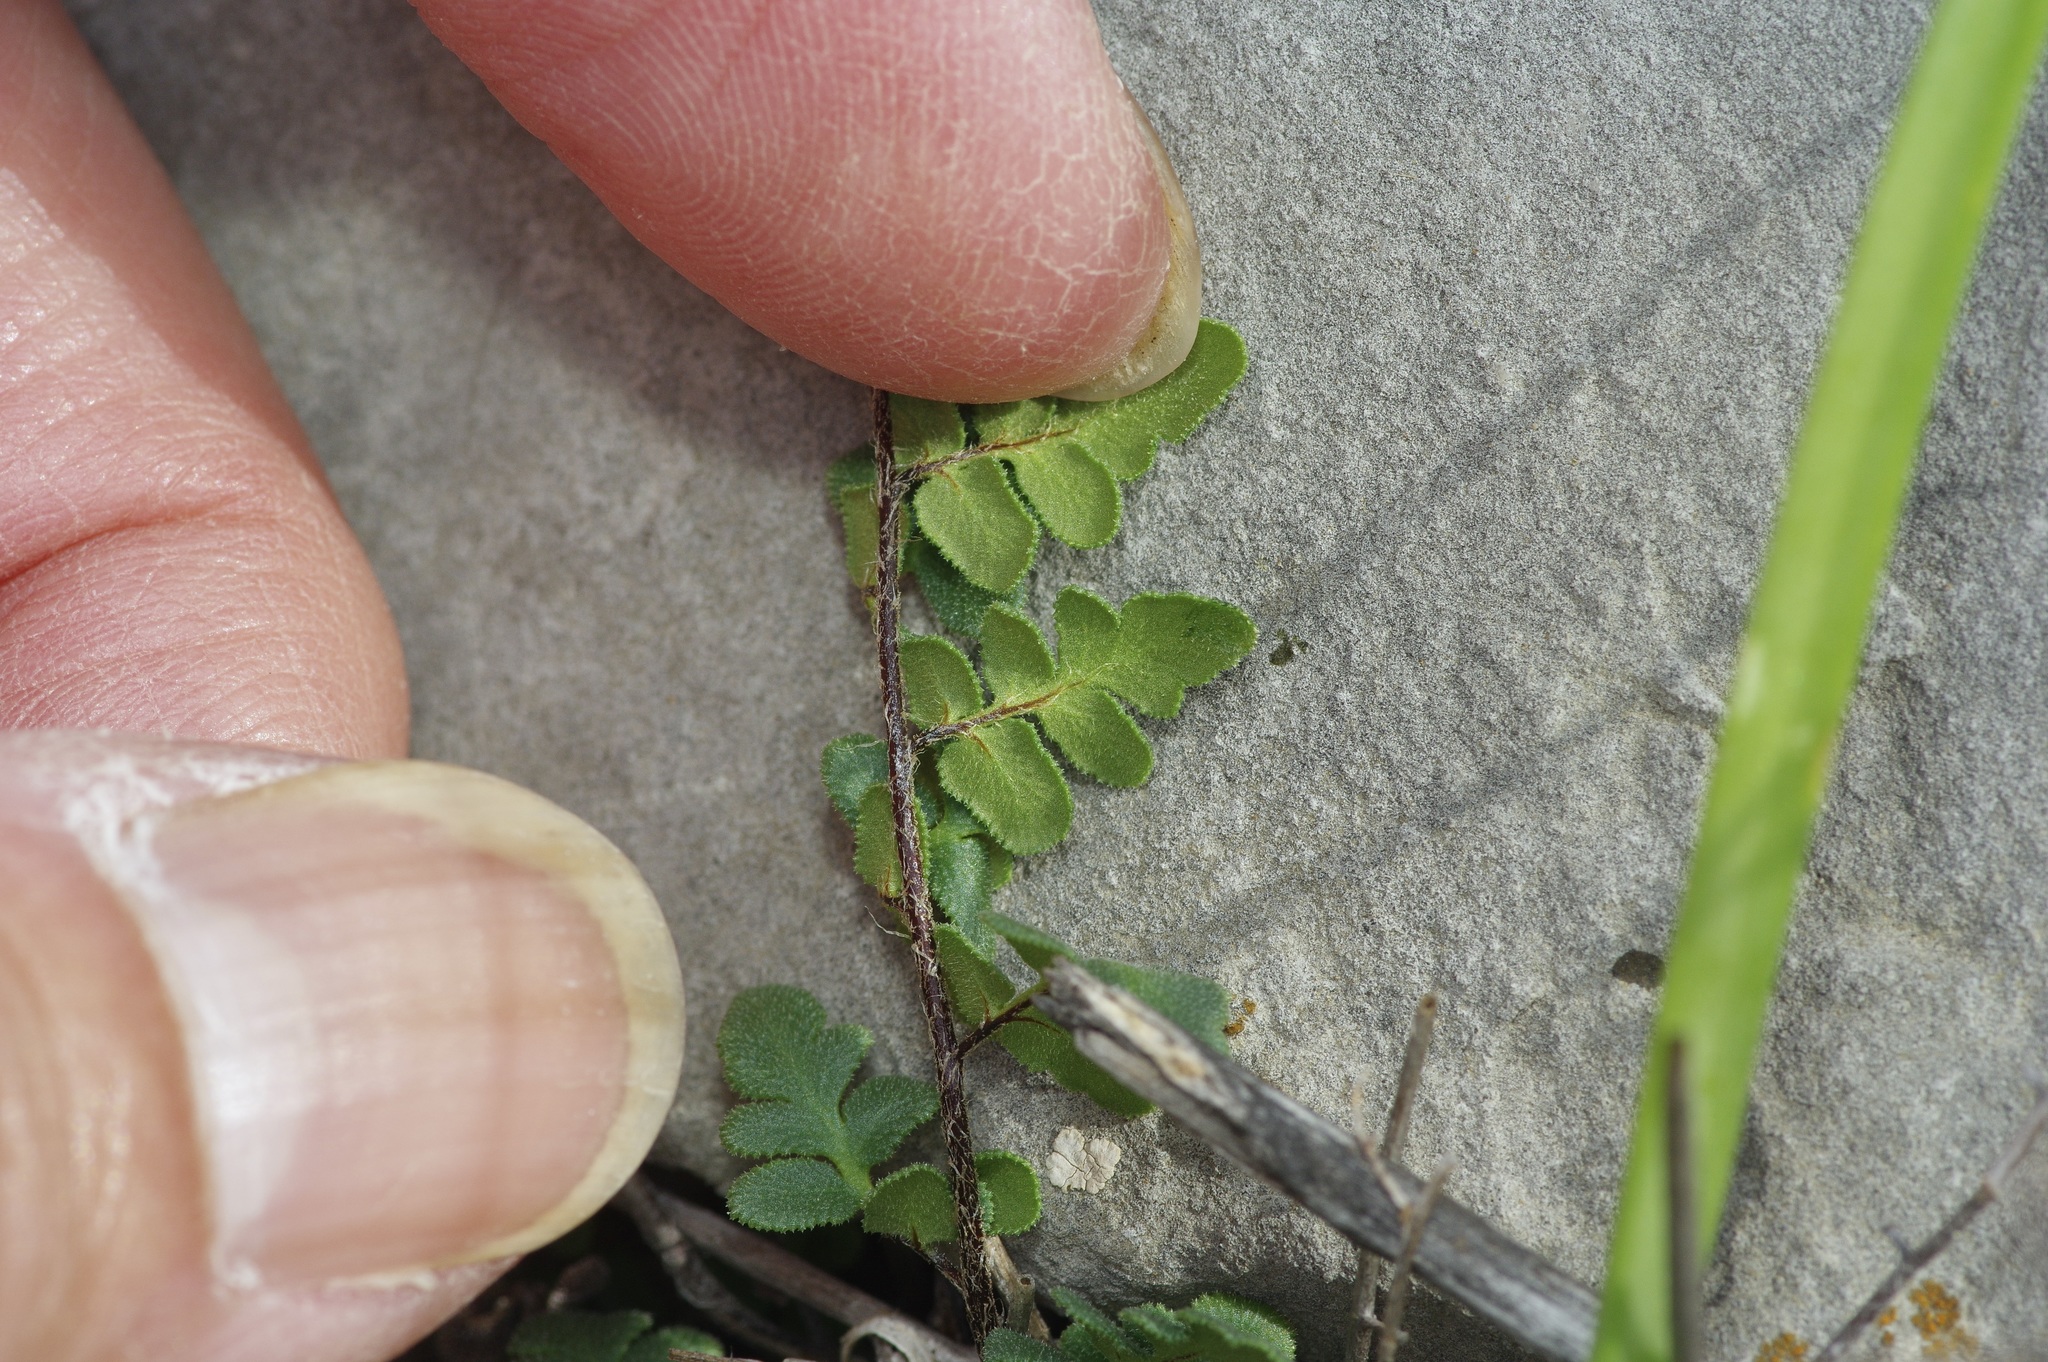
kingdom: Plantae
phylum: Tracheophyta
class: Polypodiopsida
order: Polypodiales
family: Pteridaceae
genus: Myriopteris
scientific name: Myriopteris scabra
